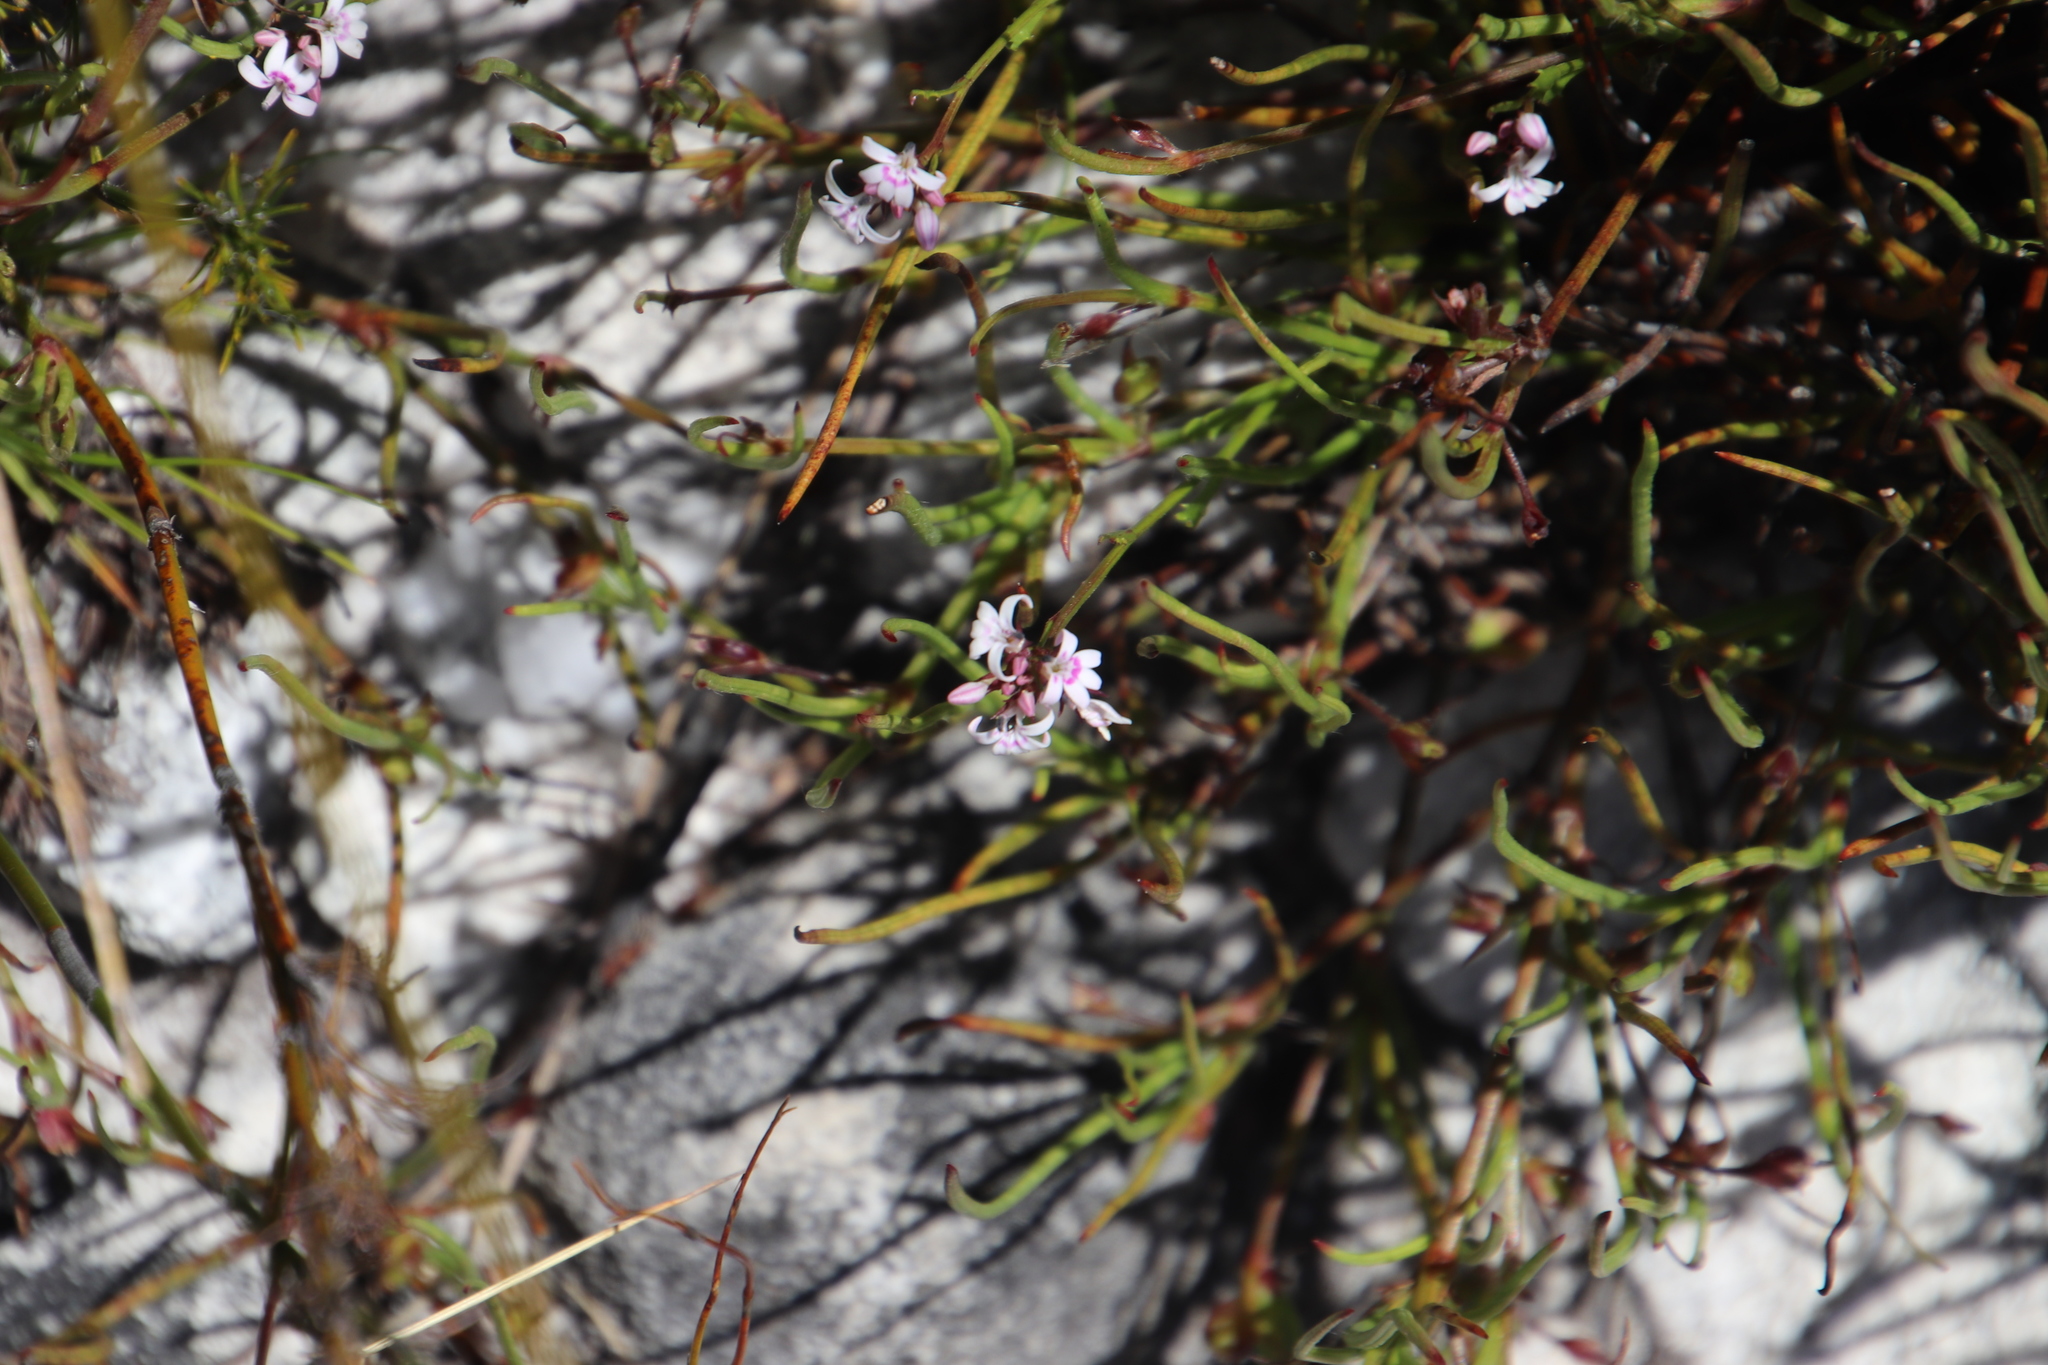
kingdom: Plantae
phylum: Tracheophyta
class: Magnoliopsida
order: Asterales
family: Campanulaceae
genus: Lobelia
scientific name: Lobelia jasionoides
